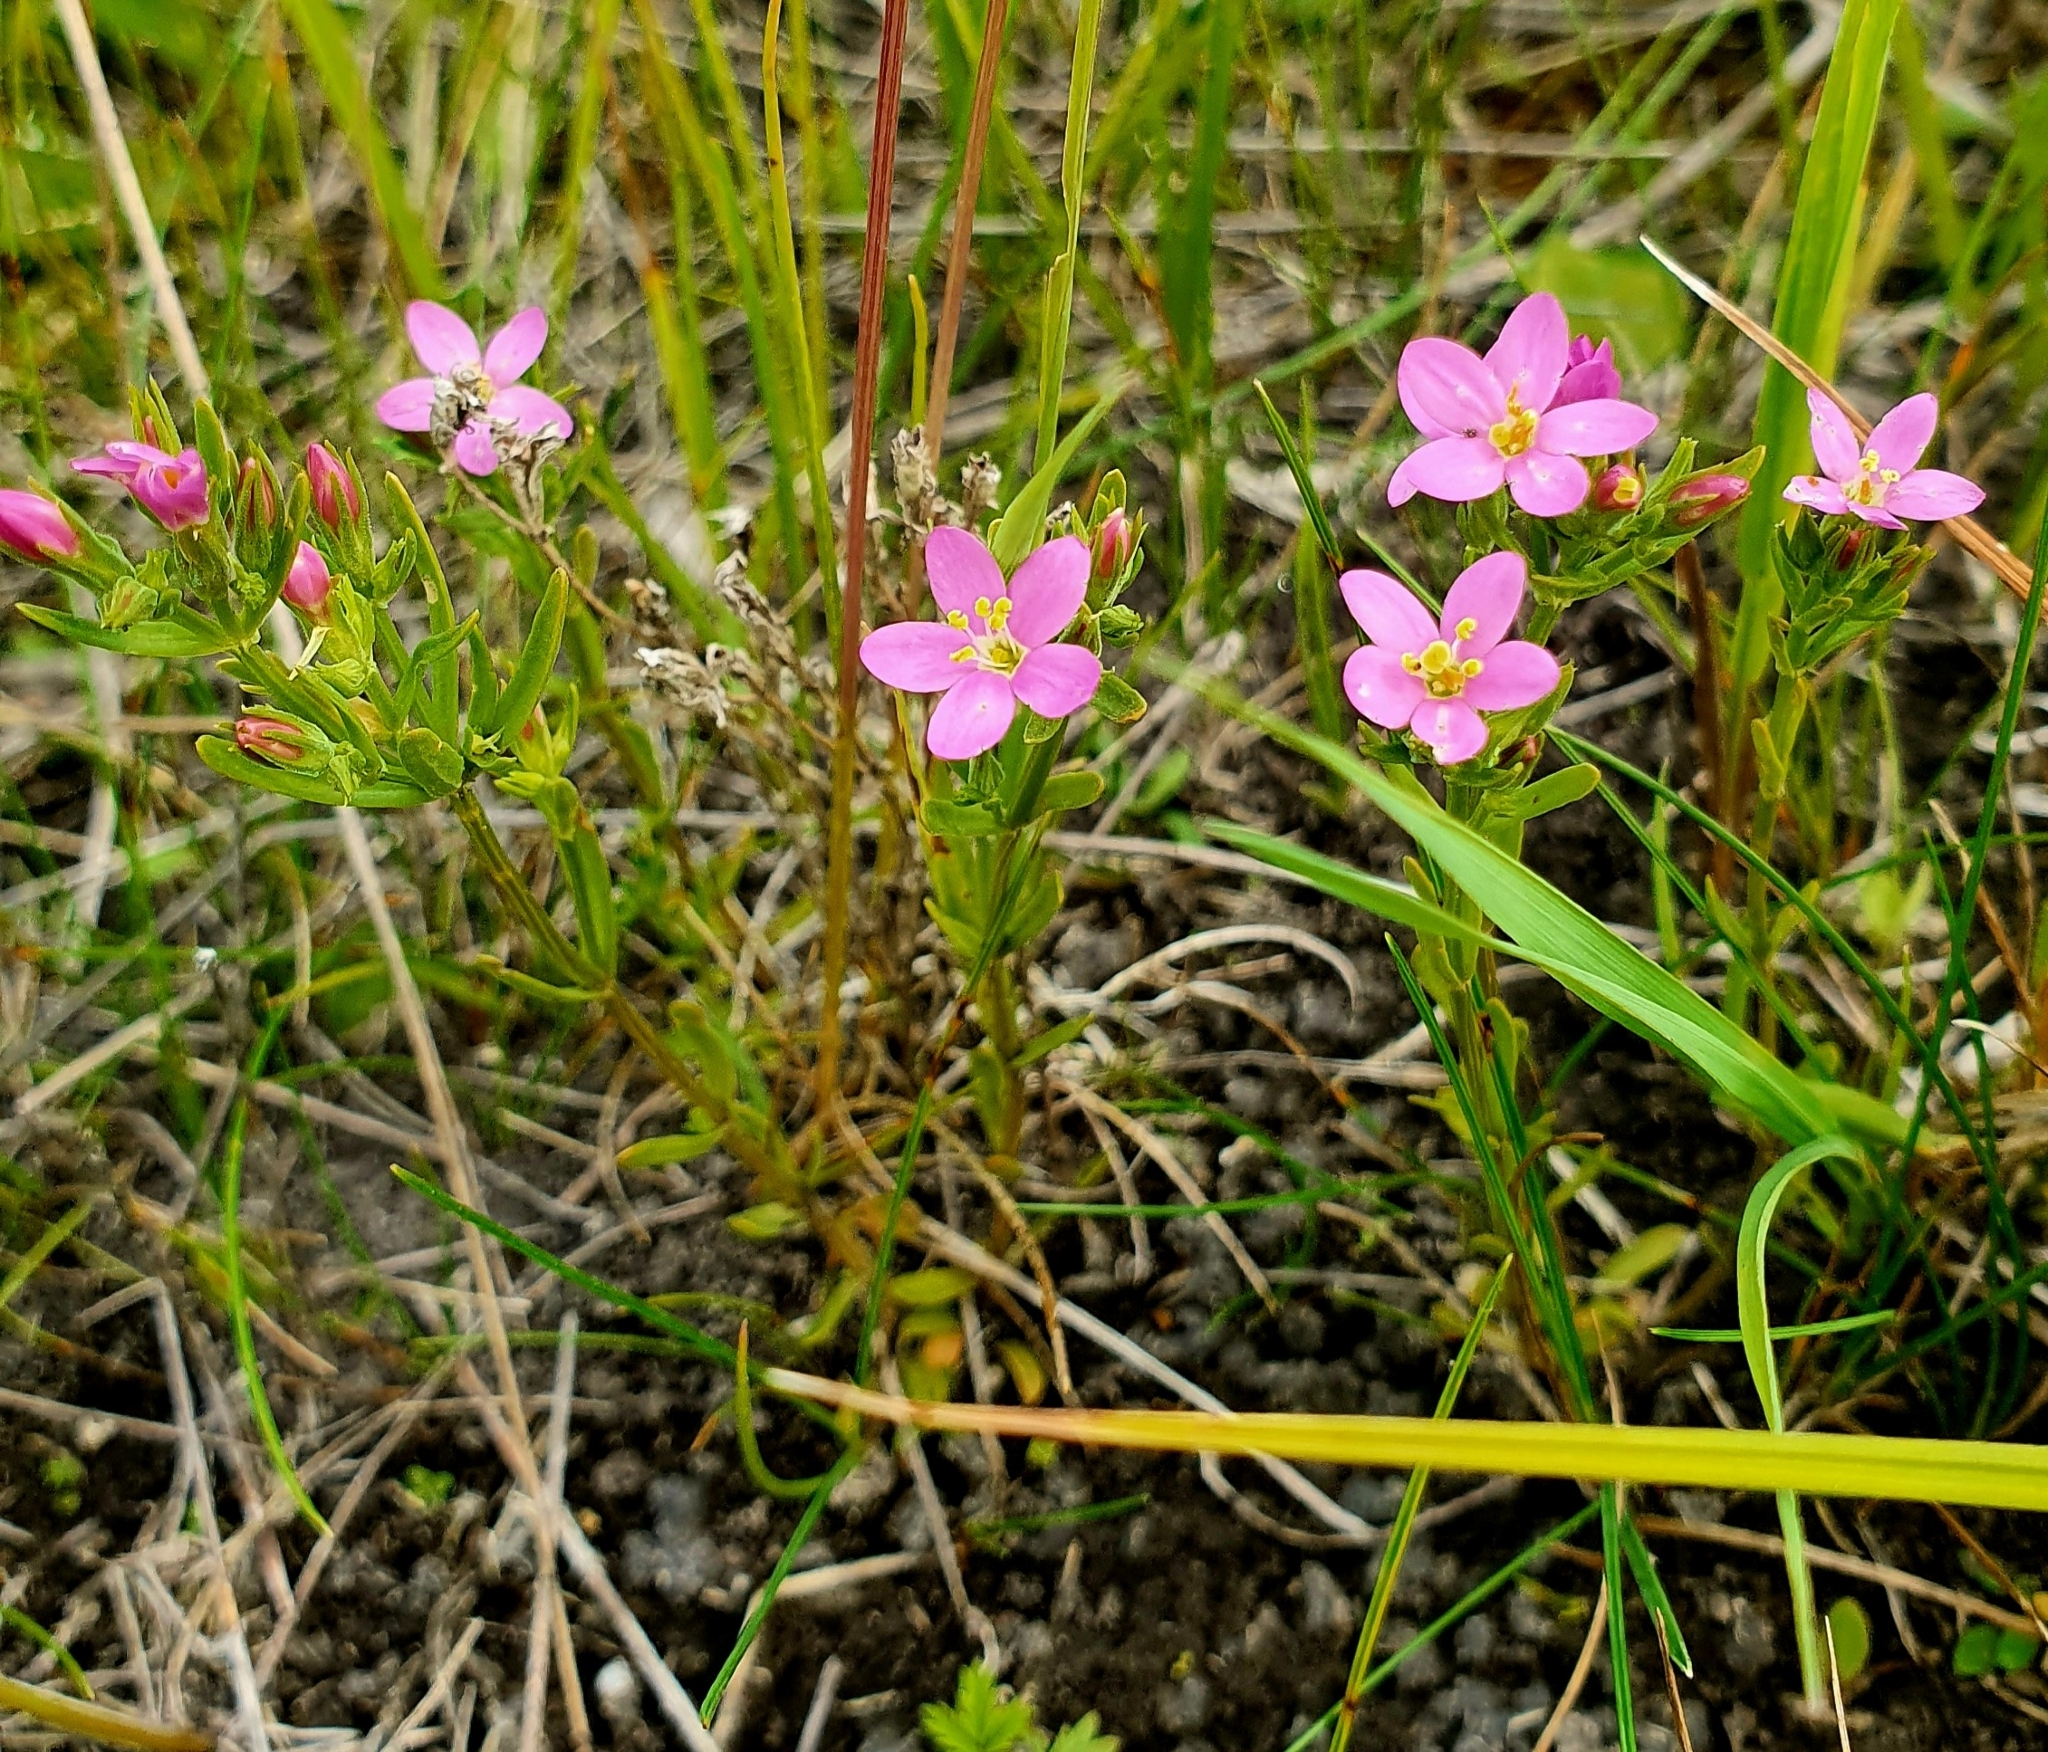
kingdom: Plantae
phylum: Tracheophyta
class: Magnoliopsida
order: Gentianales
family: Gentianaceae
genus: Centaurium
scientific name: Centaurium littorale
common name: Seaside centaury
